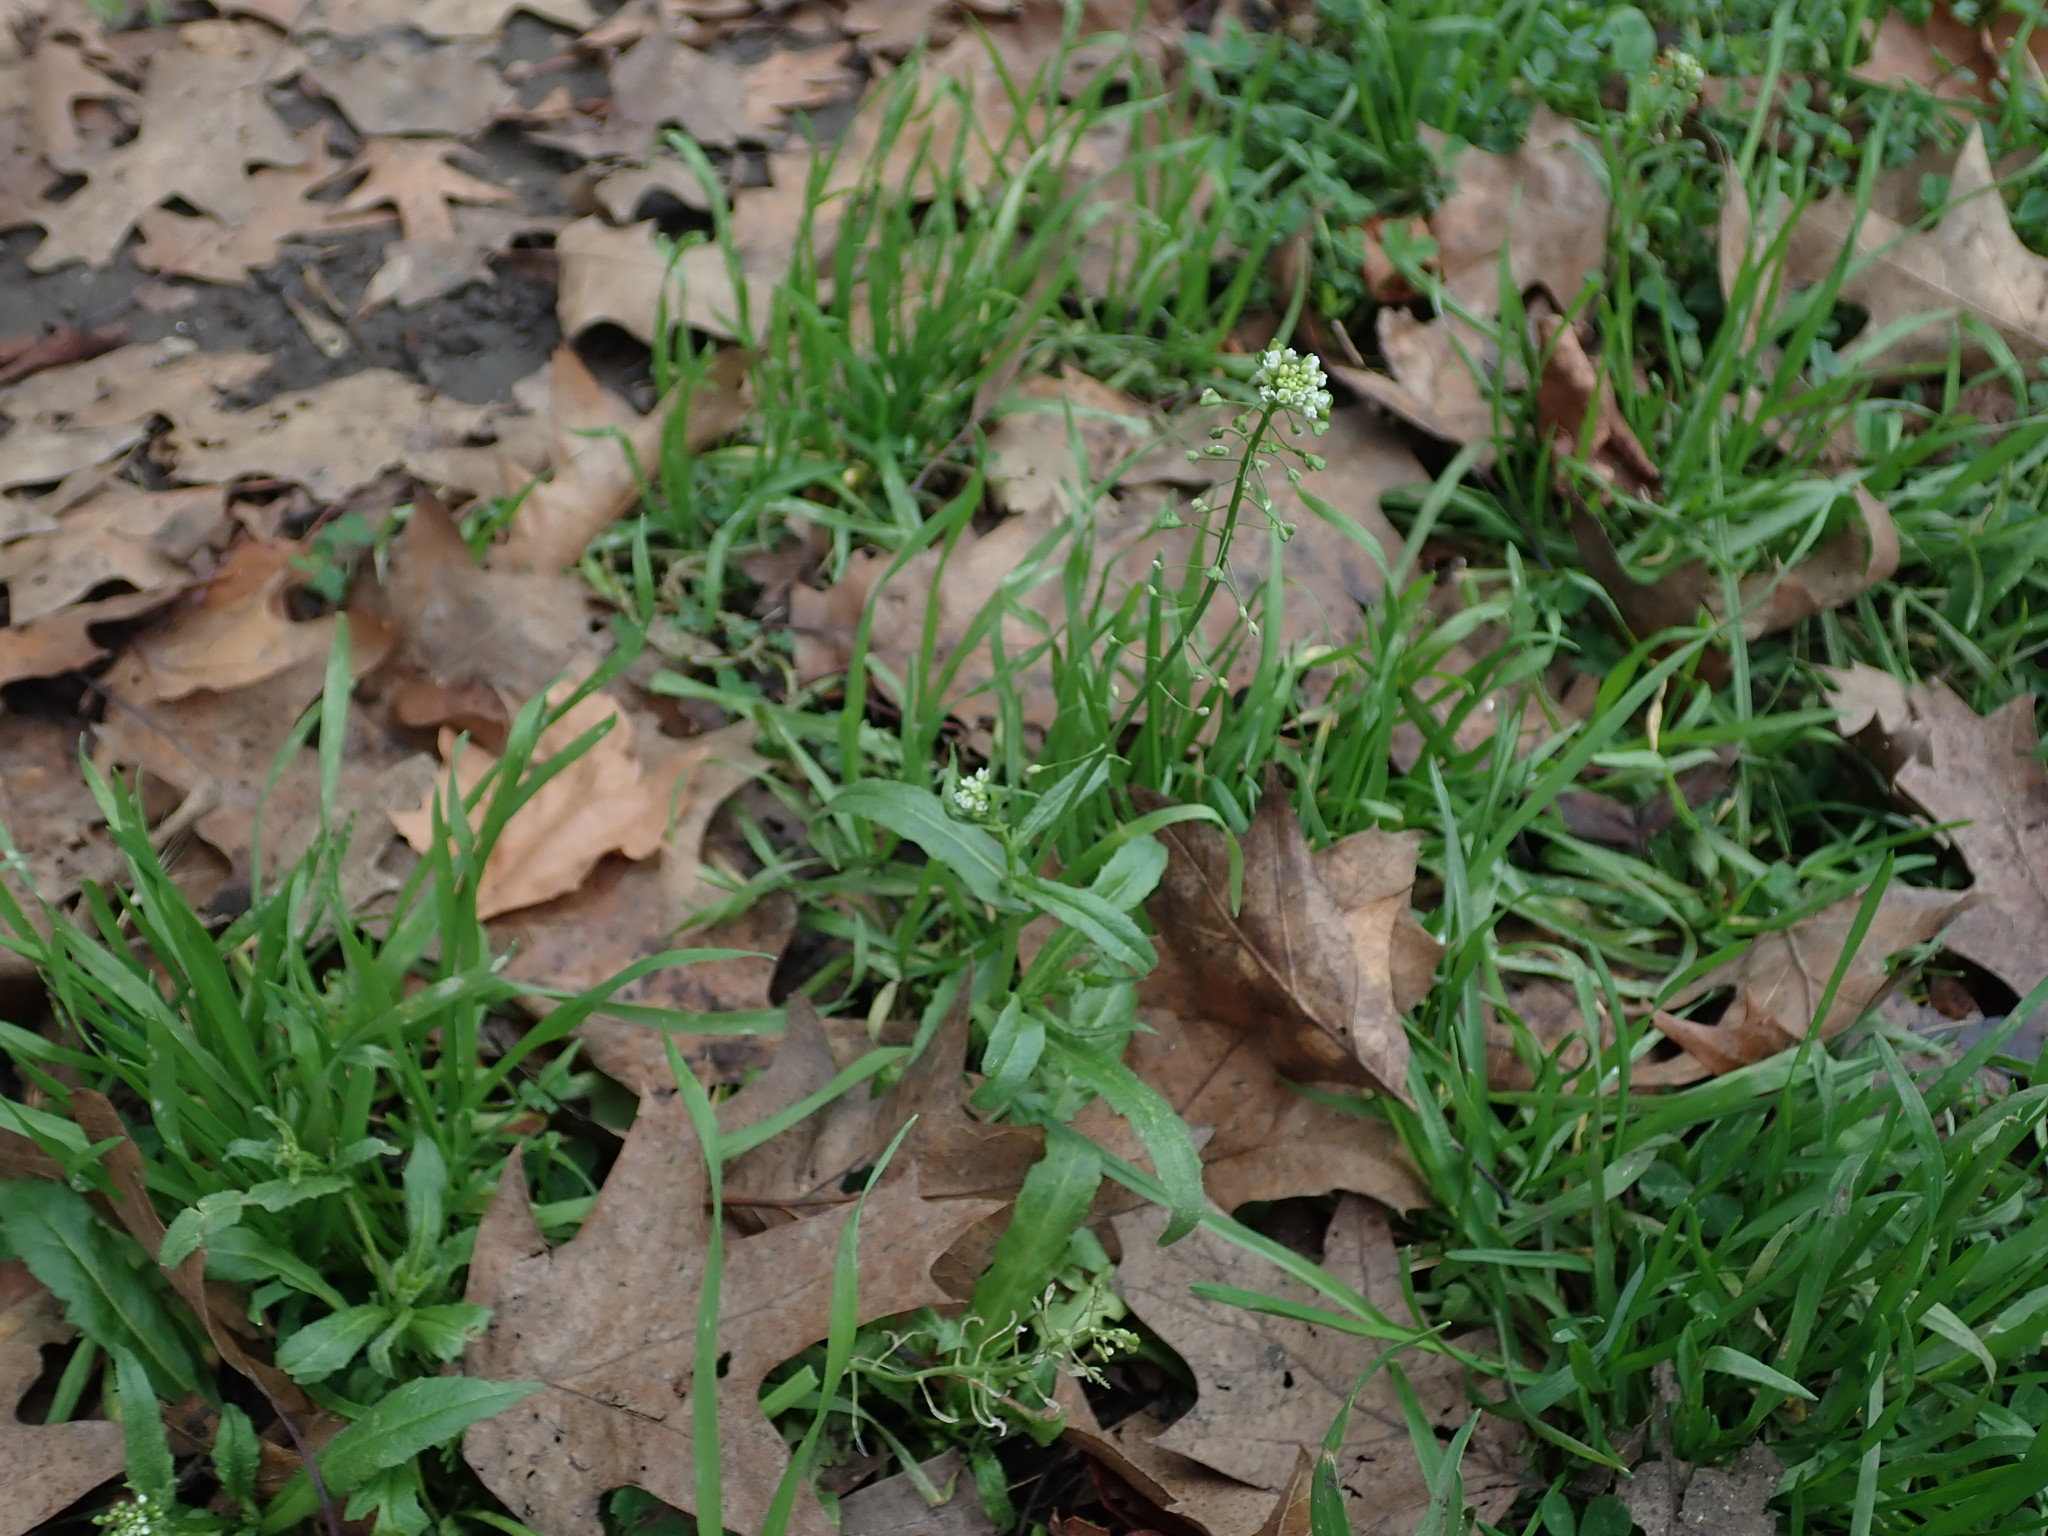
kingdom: Plantae
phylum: Tracheophyta
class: Magnoliopsida
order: Brassicales
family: Brassicaceae
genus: Capsella
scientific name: Capsella bursa-pastoris
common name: Shepherd's purse
